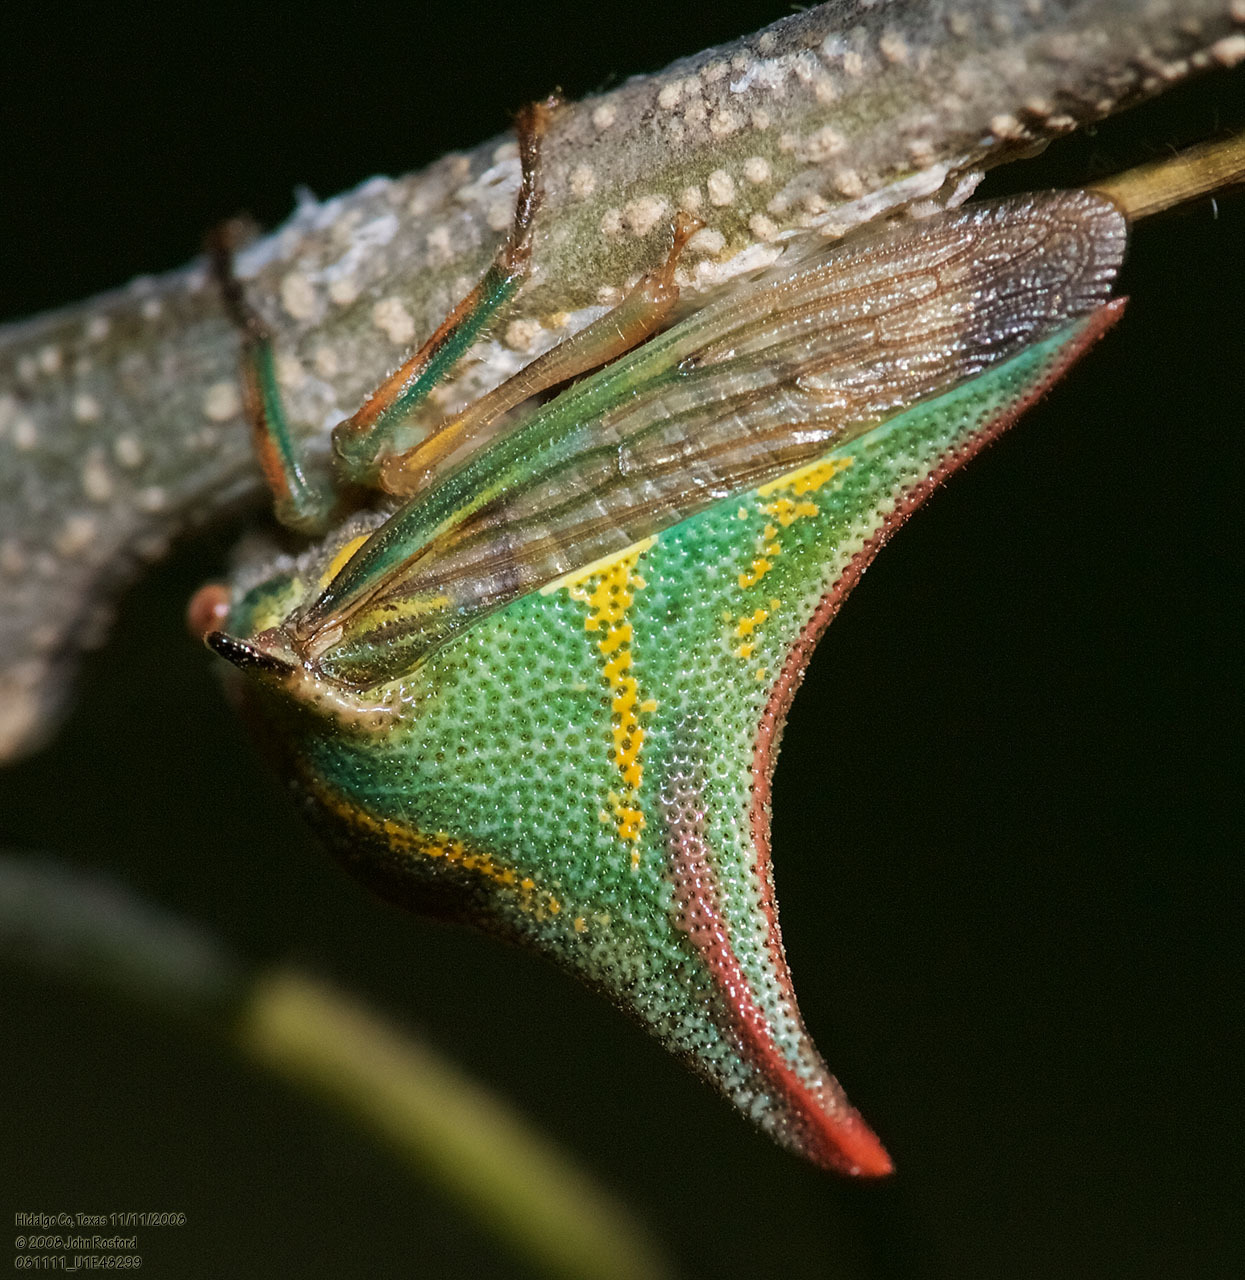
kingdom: Animalia
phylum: Arthropoda
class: Insecta
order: Hemiptera
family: Membracidae
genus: Umbonia
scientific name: Umbonia crassicornis
